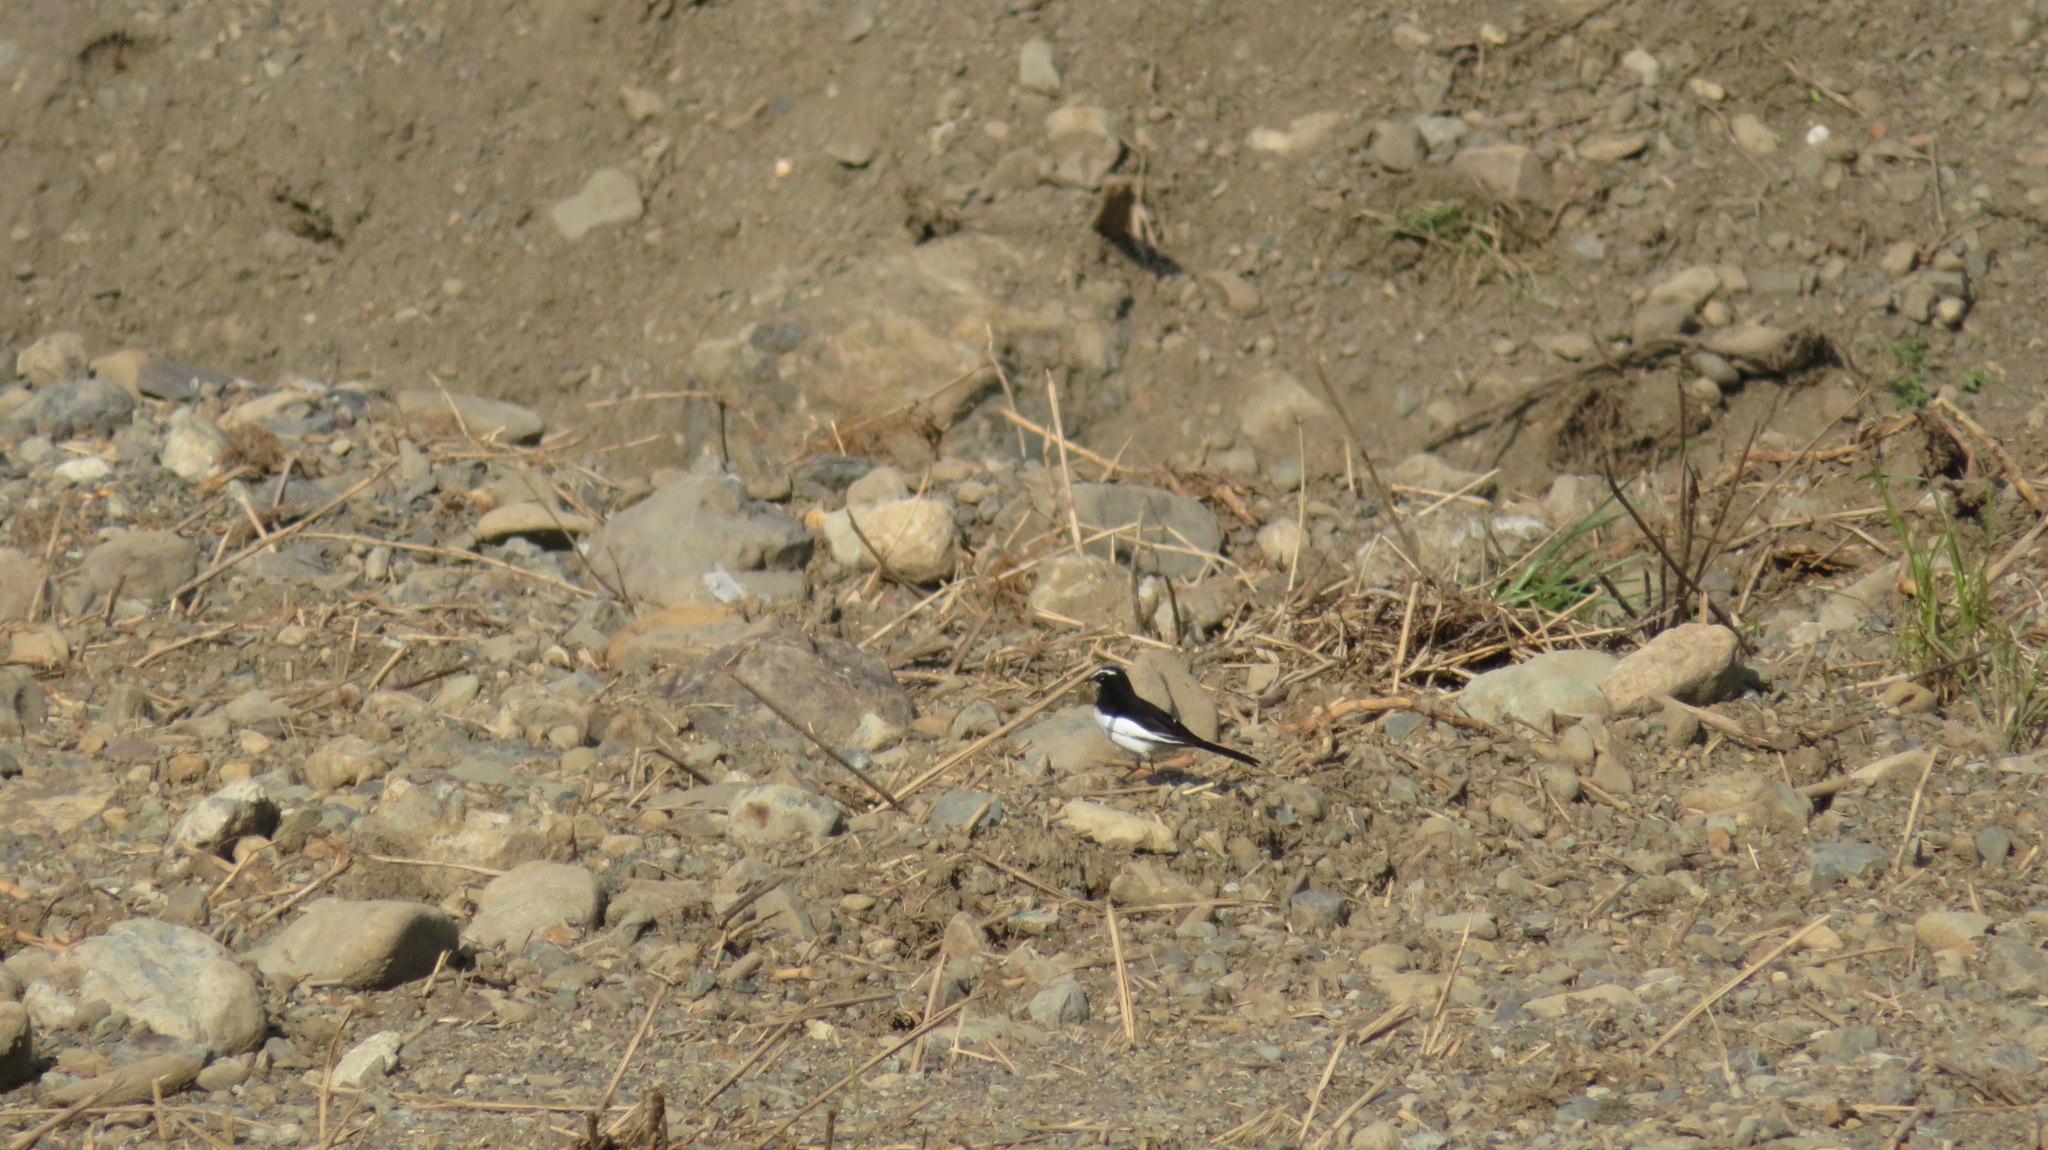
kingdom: Animalia
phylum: Chordata
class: Aves
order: Passeriformes
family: Motacillidae
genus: Motacilla
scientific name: Motacilla grandis
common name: Japanese wagtail
